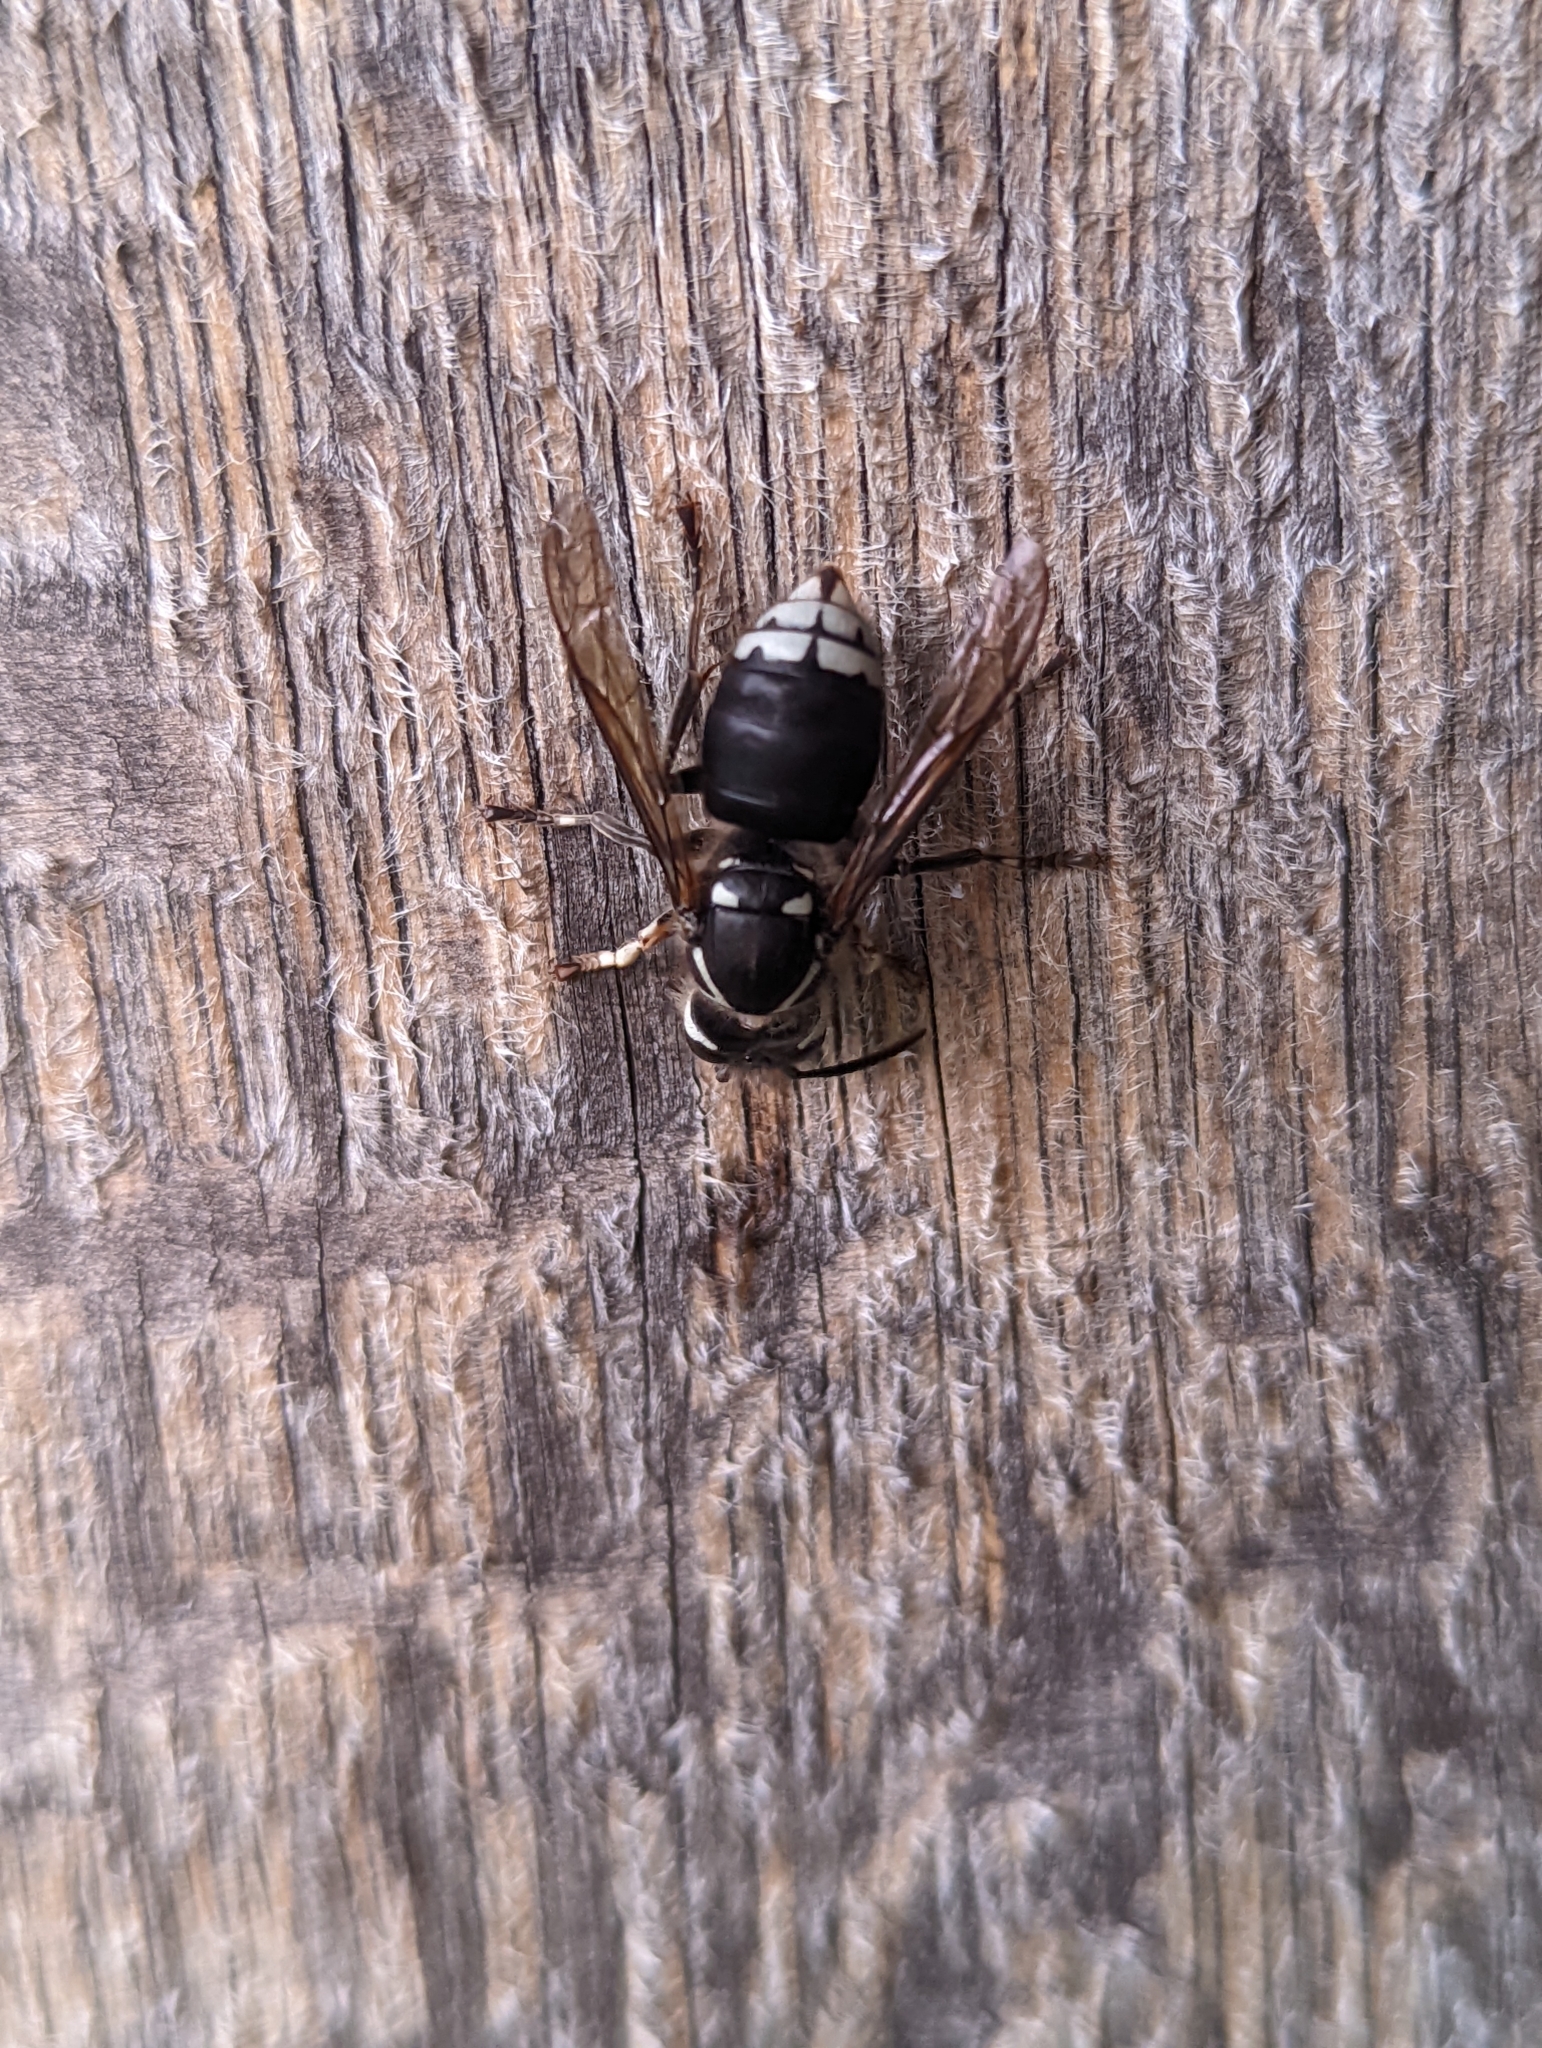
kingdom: Animalia
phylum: Arthropoda
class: Insecta
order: Hymenoptera
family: Vespidae
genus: Dolichovespula
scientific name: Dolichovespula maculata
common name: Bald-faced hornet
